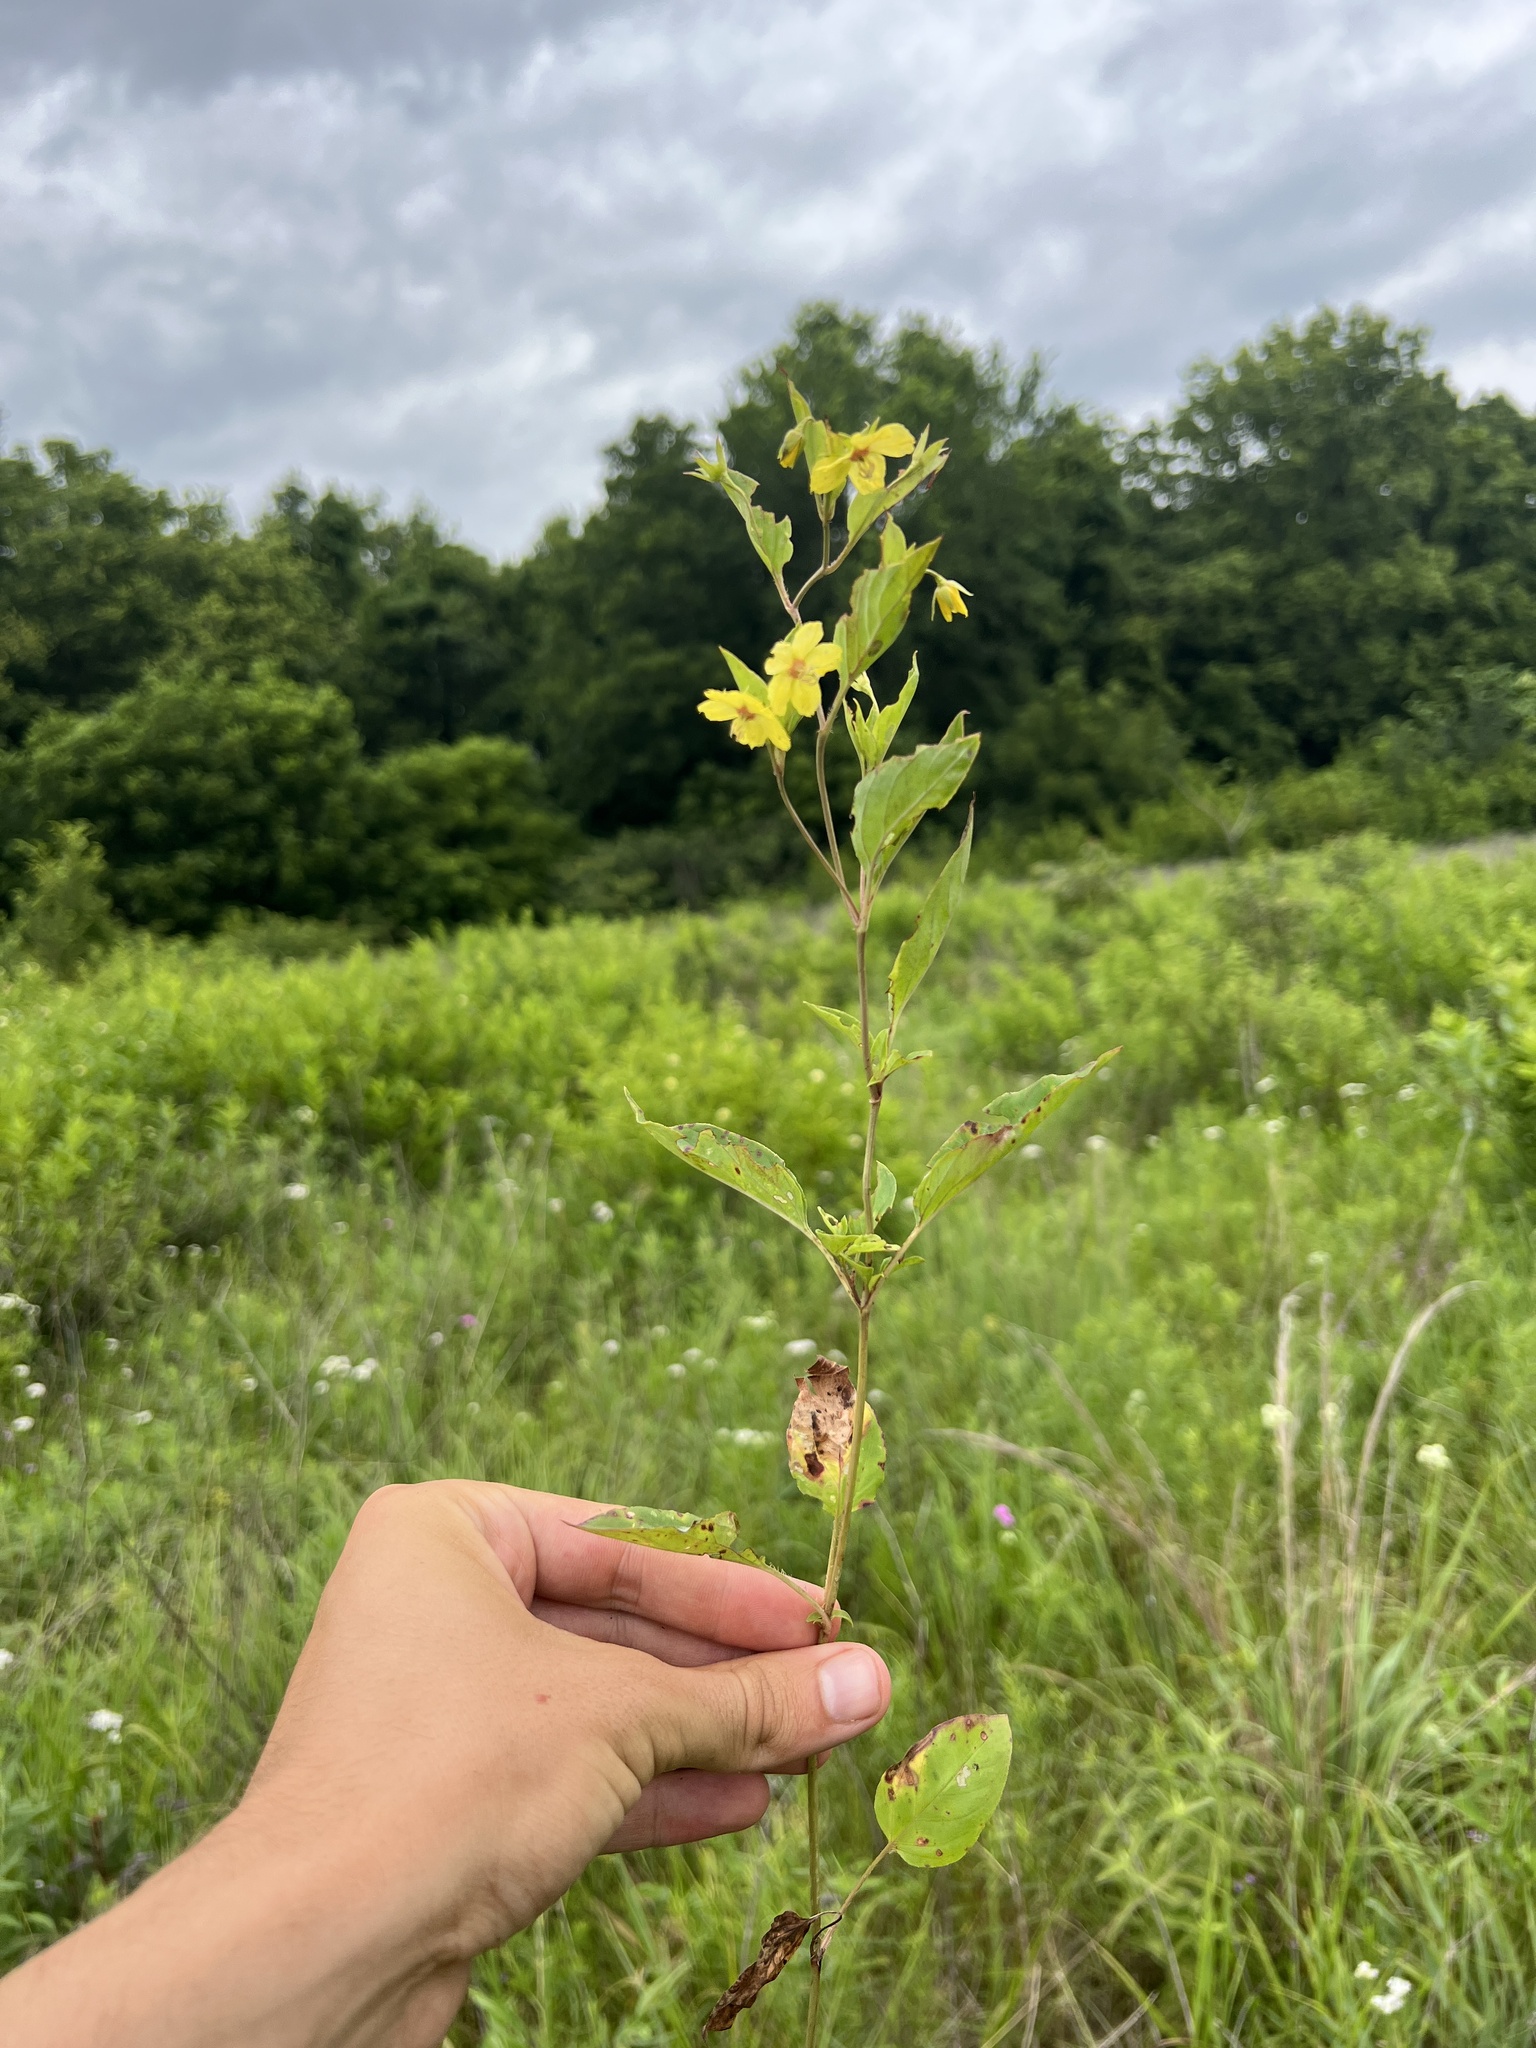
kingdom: Plantae
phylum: Tracheophyta
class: Magnoliopsida
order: Ericales
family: Primulaceae
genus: Lysimachia
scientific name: Lysimachia ciliata
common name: Fringed loosestrife
